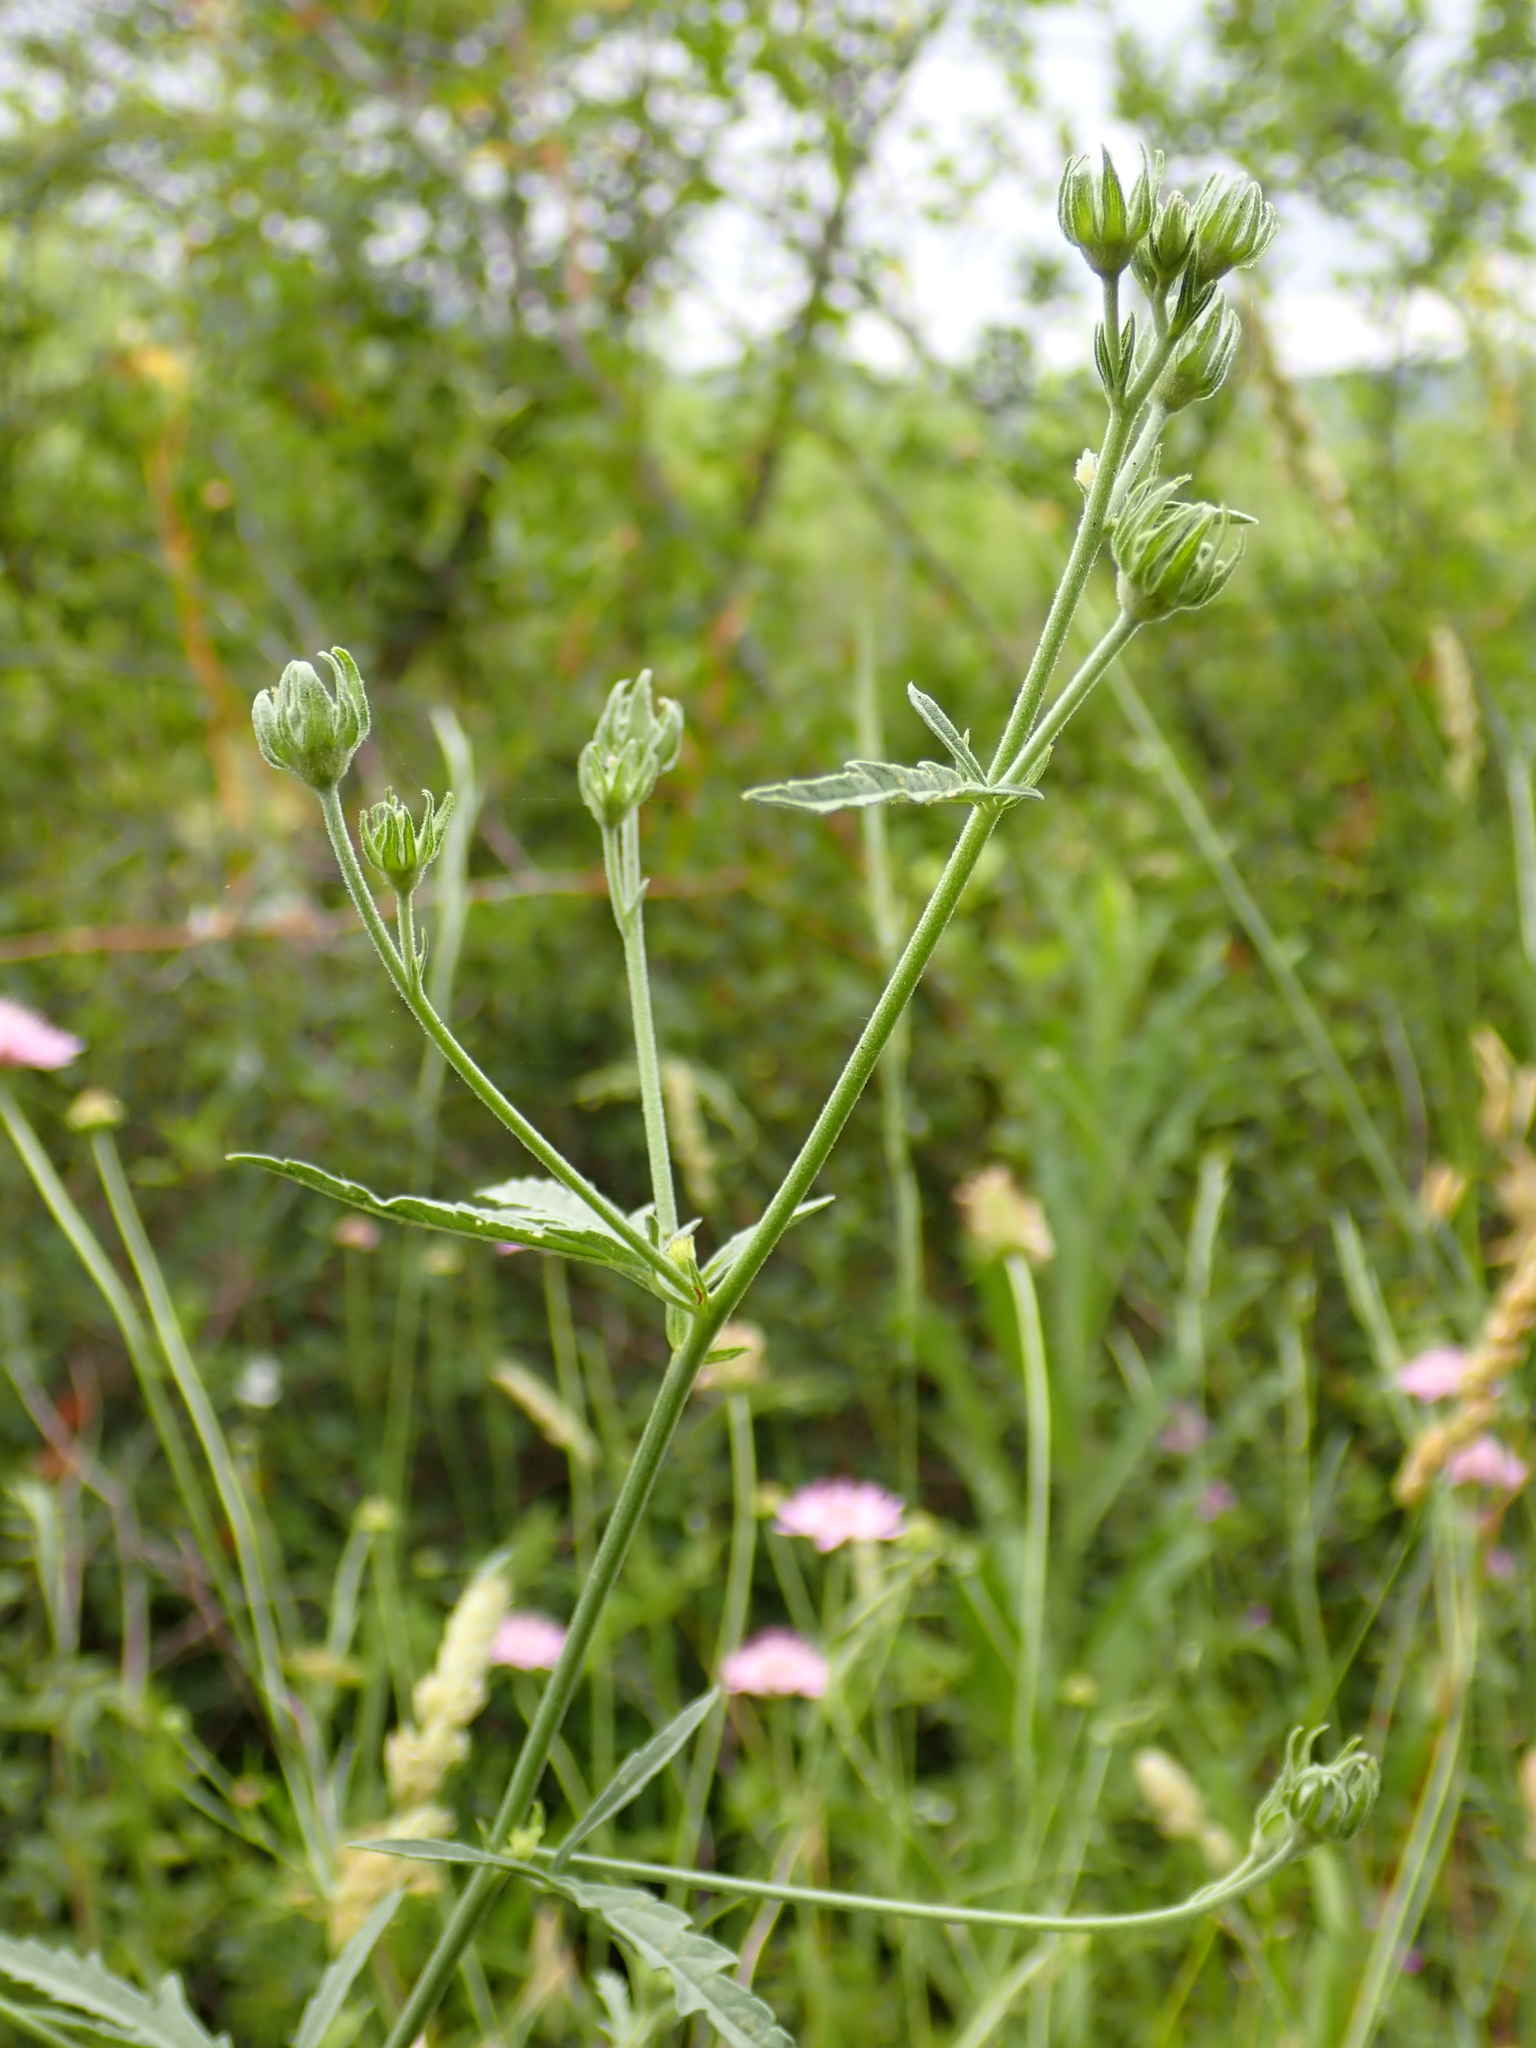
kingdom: Plantae
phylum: Tracheophyta
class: Magnoliopsida
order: Malvales
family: Malvaceae
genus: Althaea
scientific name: Althaea cannabina
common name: Palm-leaf marshmallow
